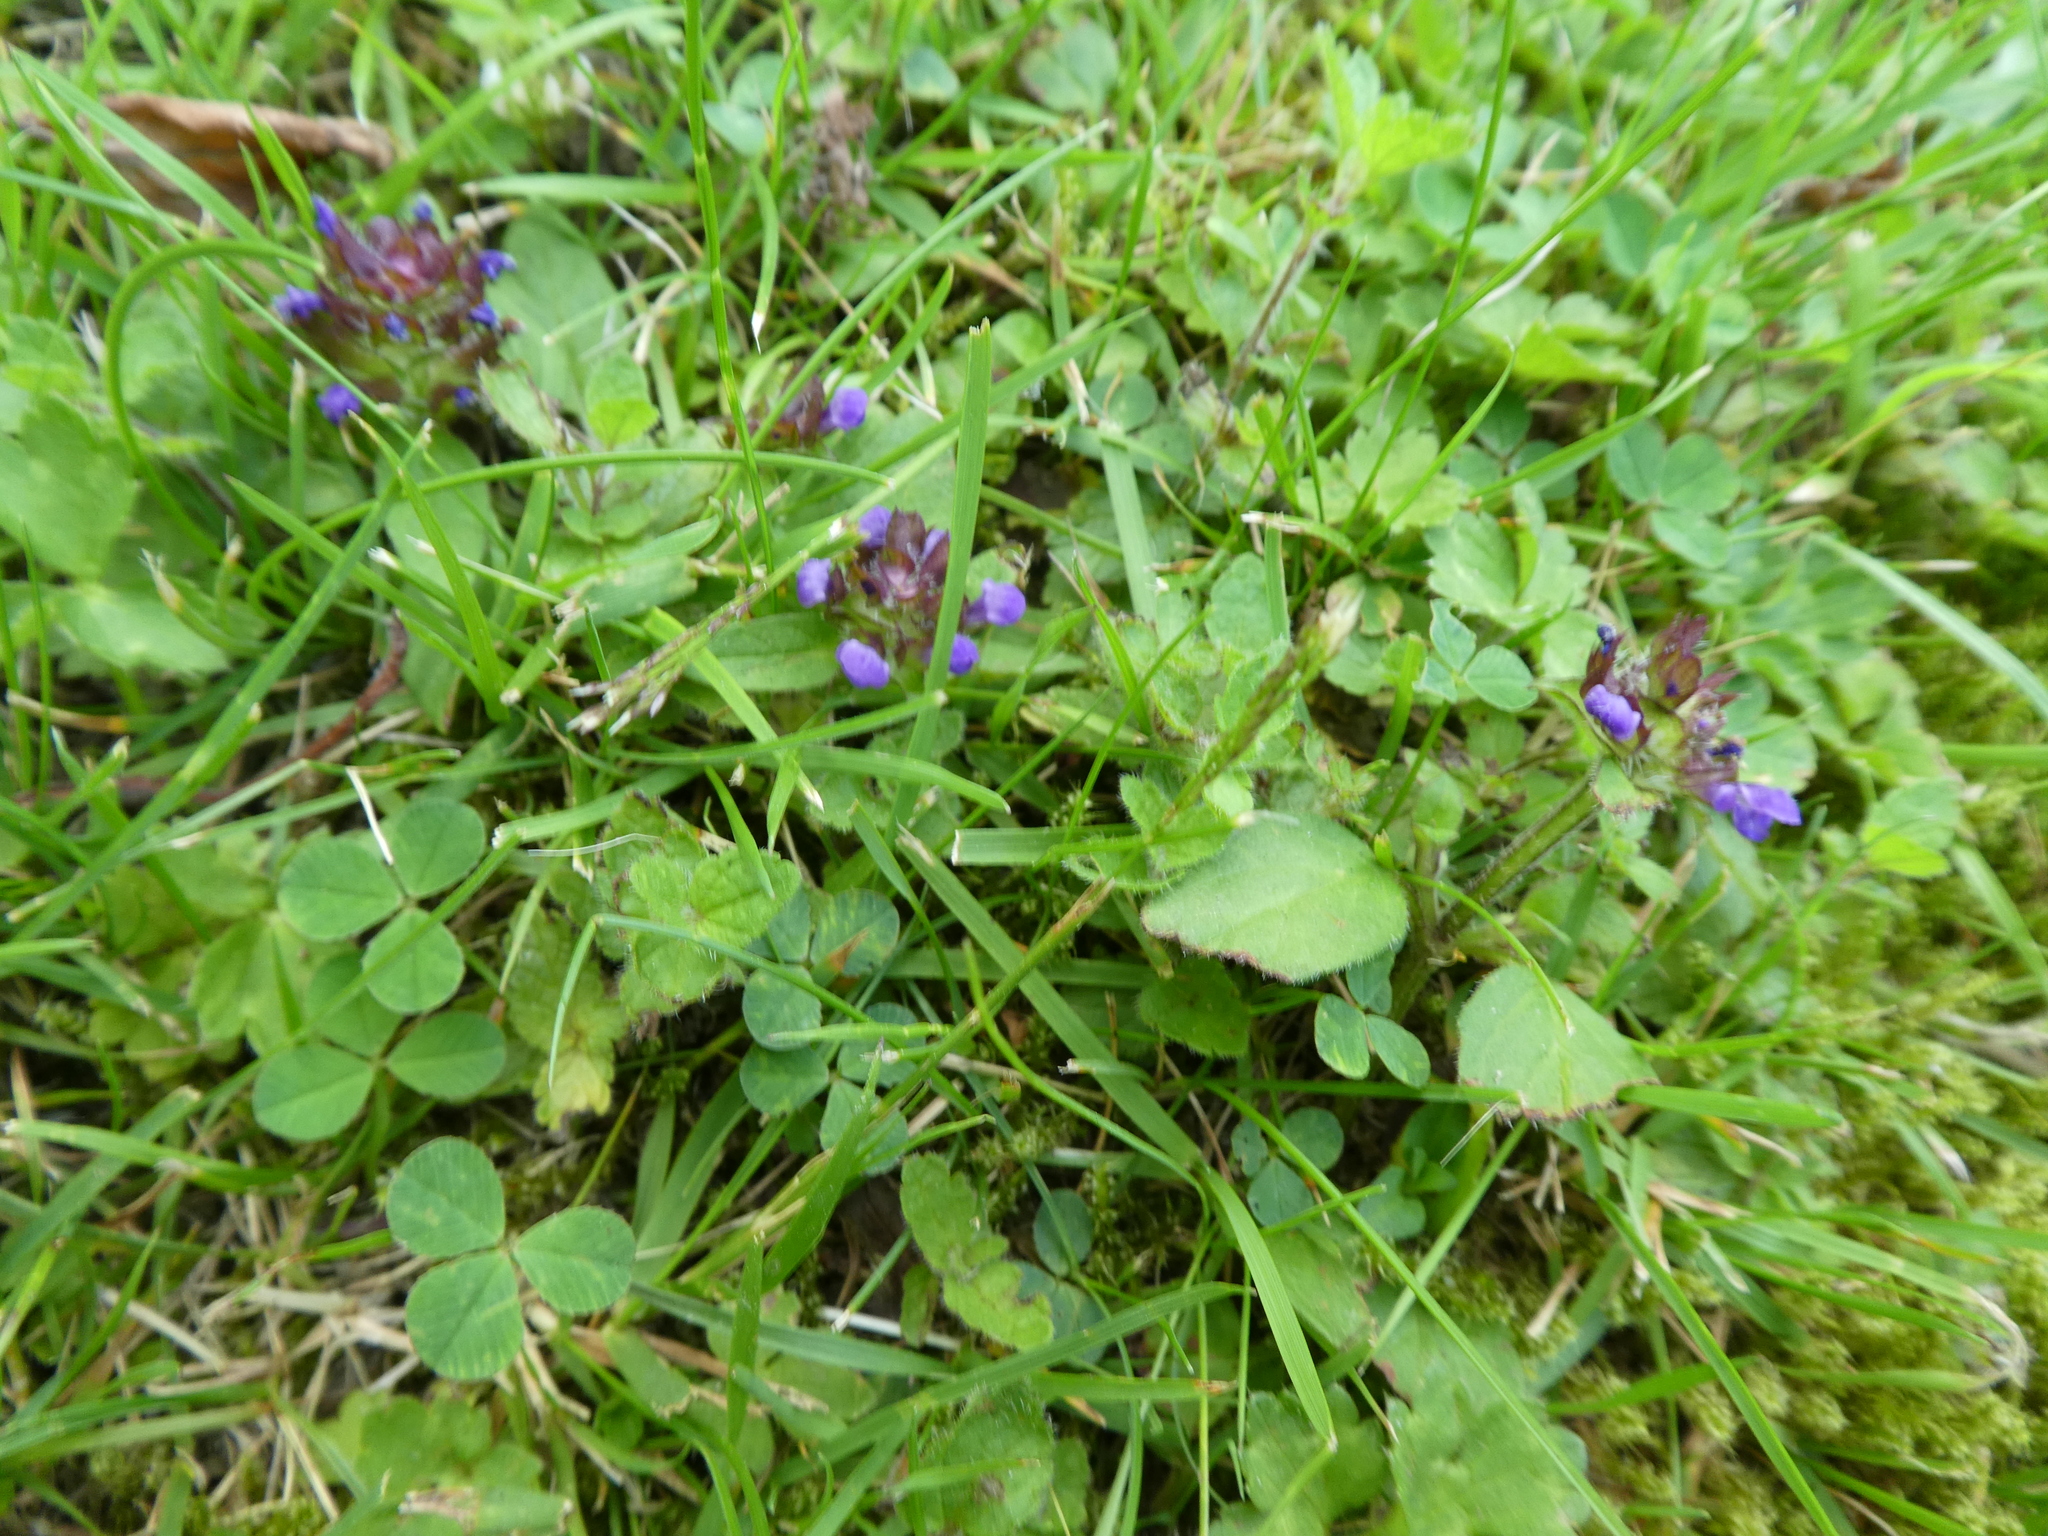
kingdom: Plantae
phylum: Tracheophyta
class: Magnoliopsida
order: Lamiales
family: Lamiaceae
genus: Prunella
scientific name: Prunella vulgaris
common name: Heal-all
